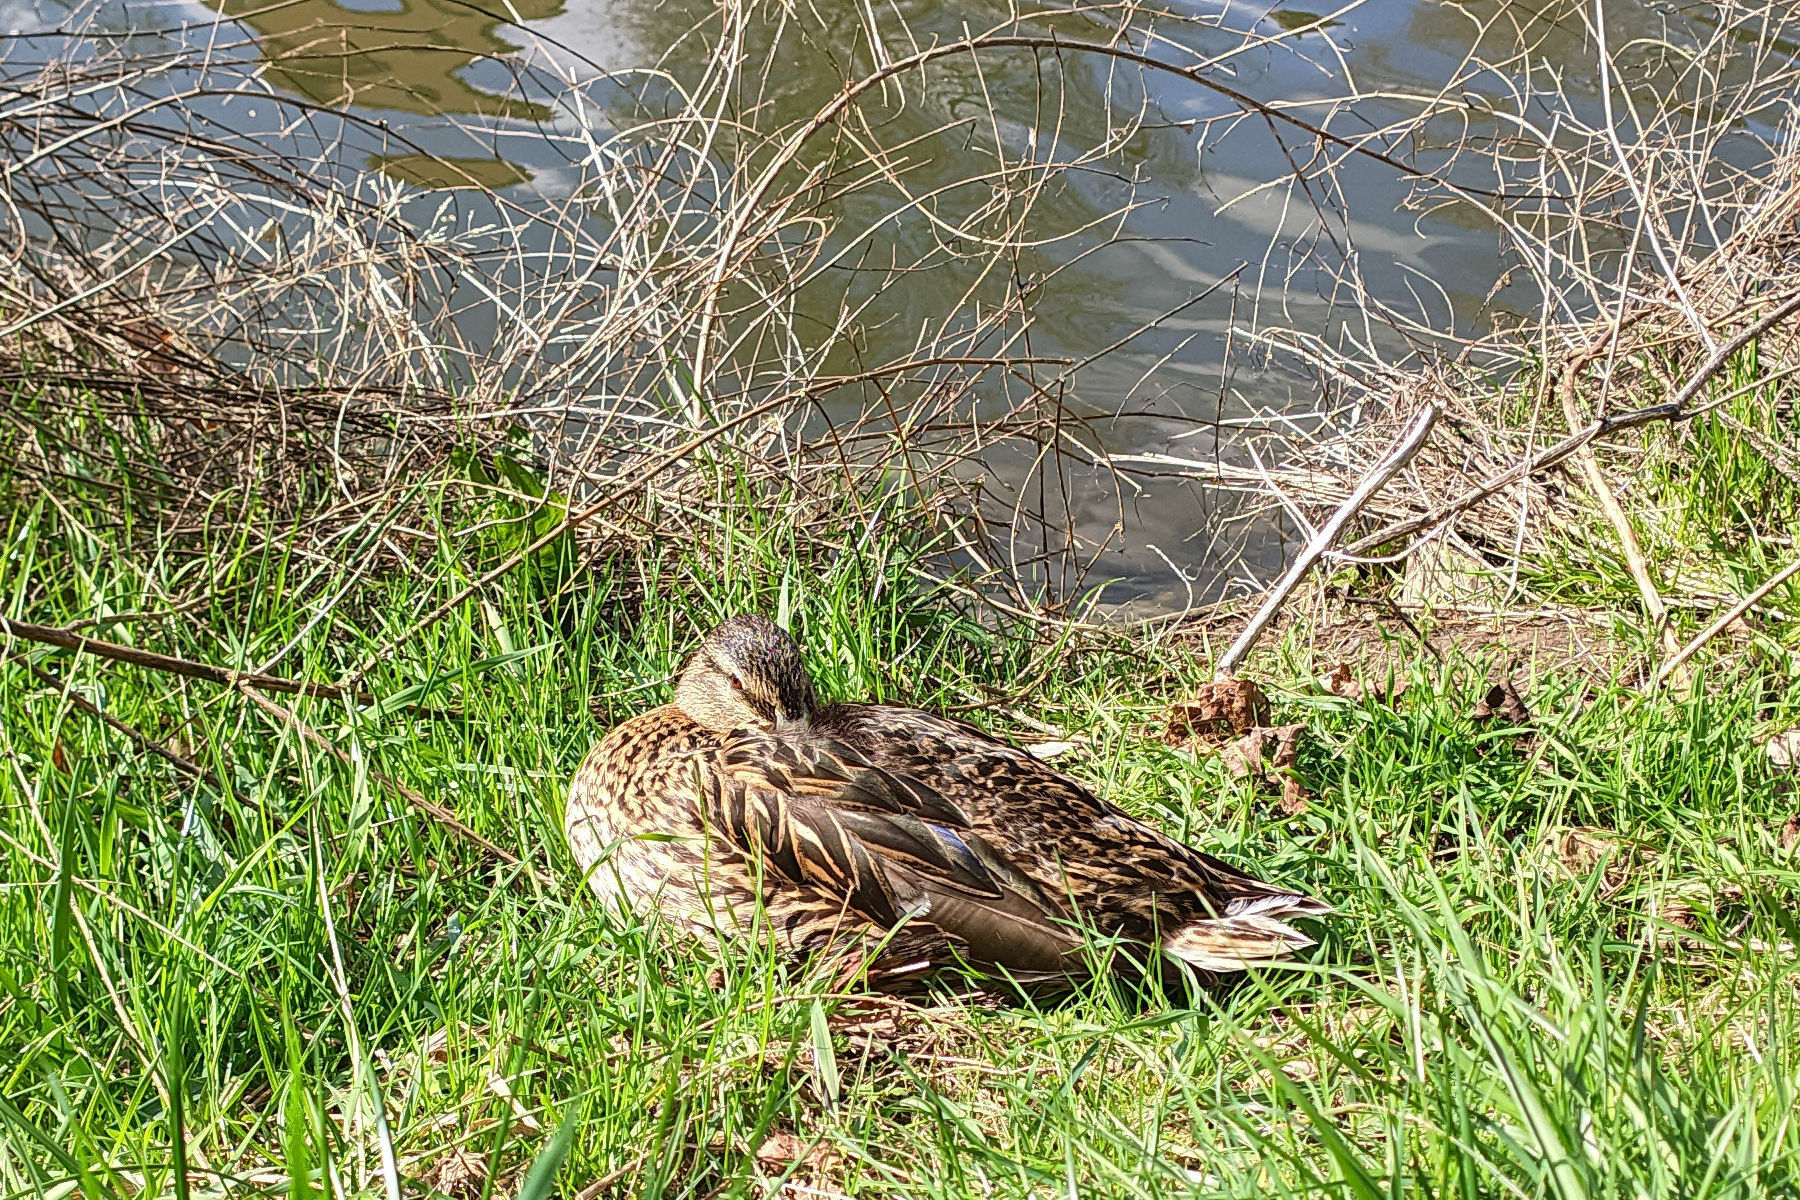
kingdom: Animalia
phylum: Chordata
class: Aves
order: Anseriformes
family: Anatidae
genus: Anas
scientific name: Anas platyrhynchos
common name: Mallard
